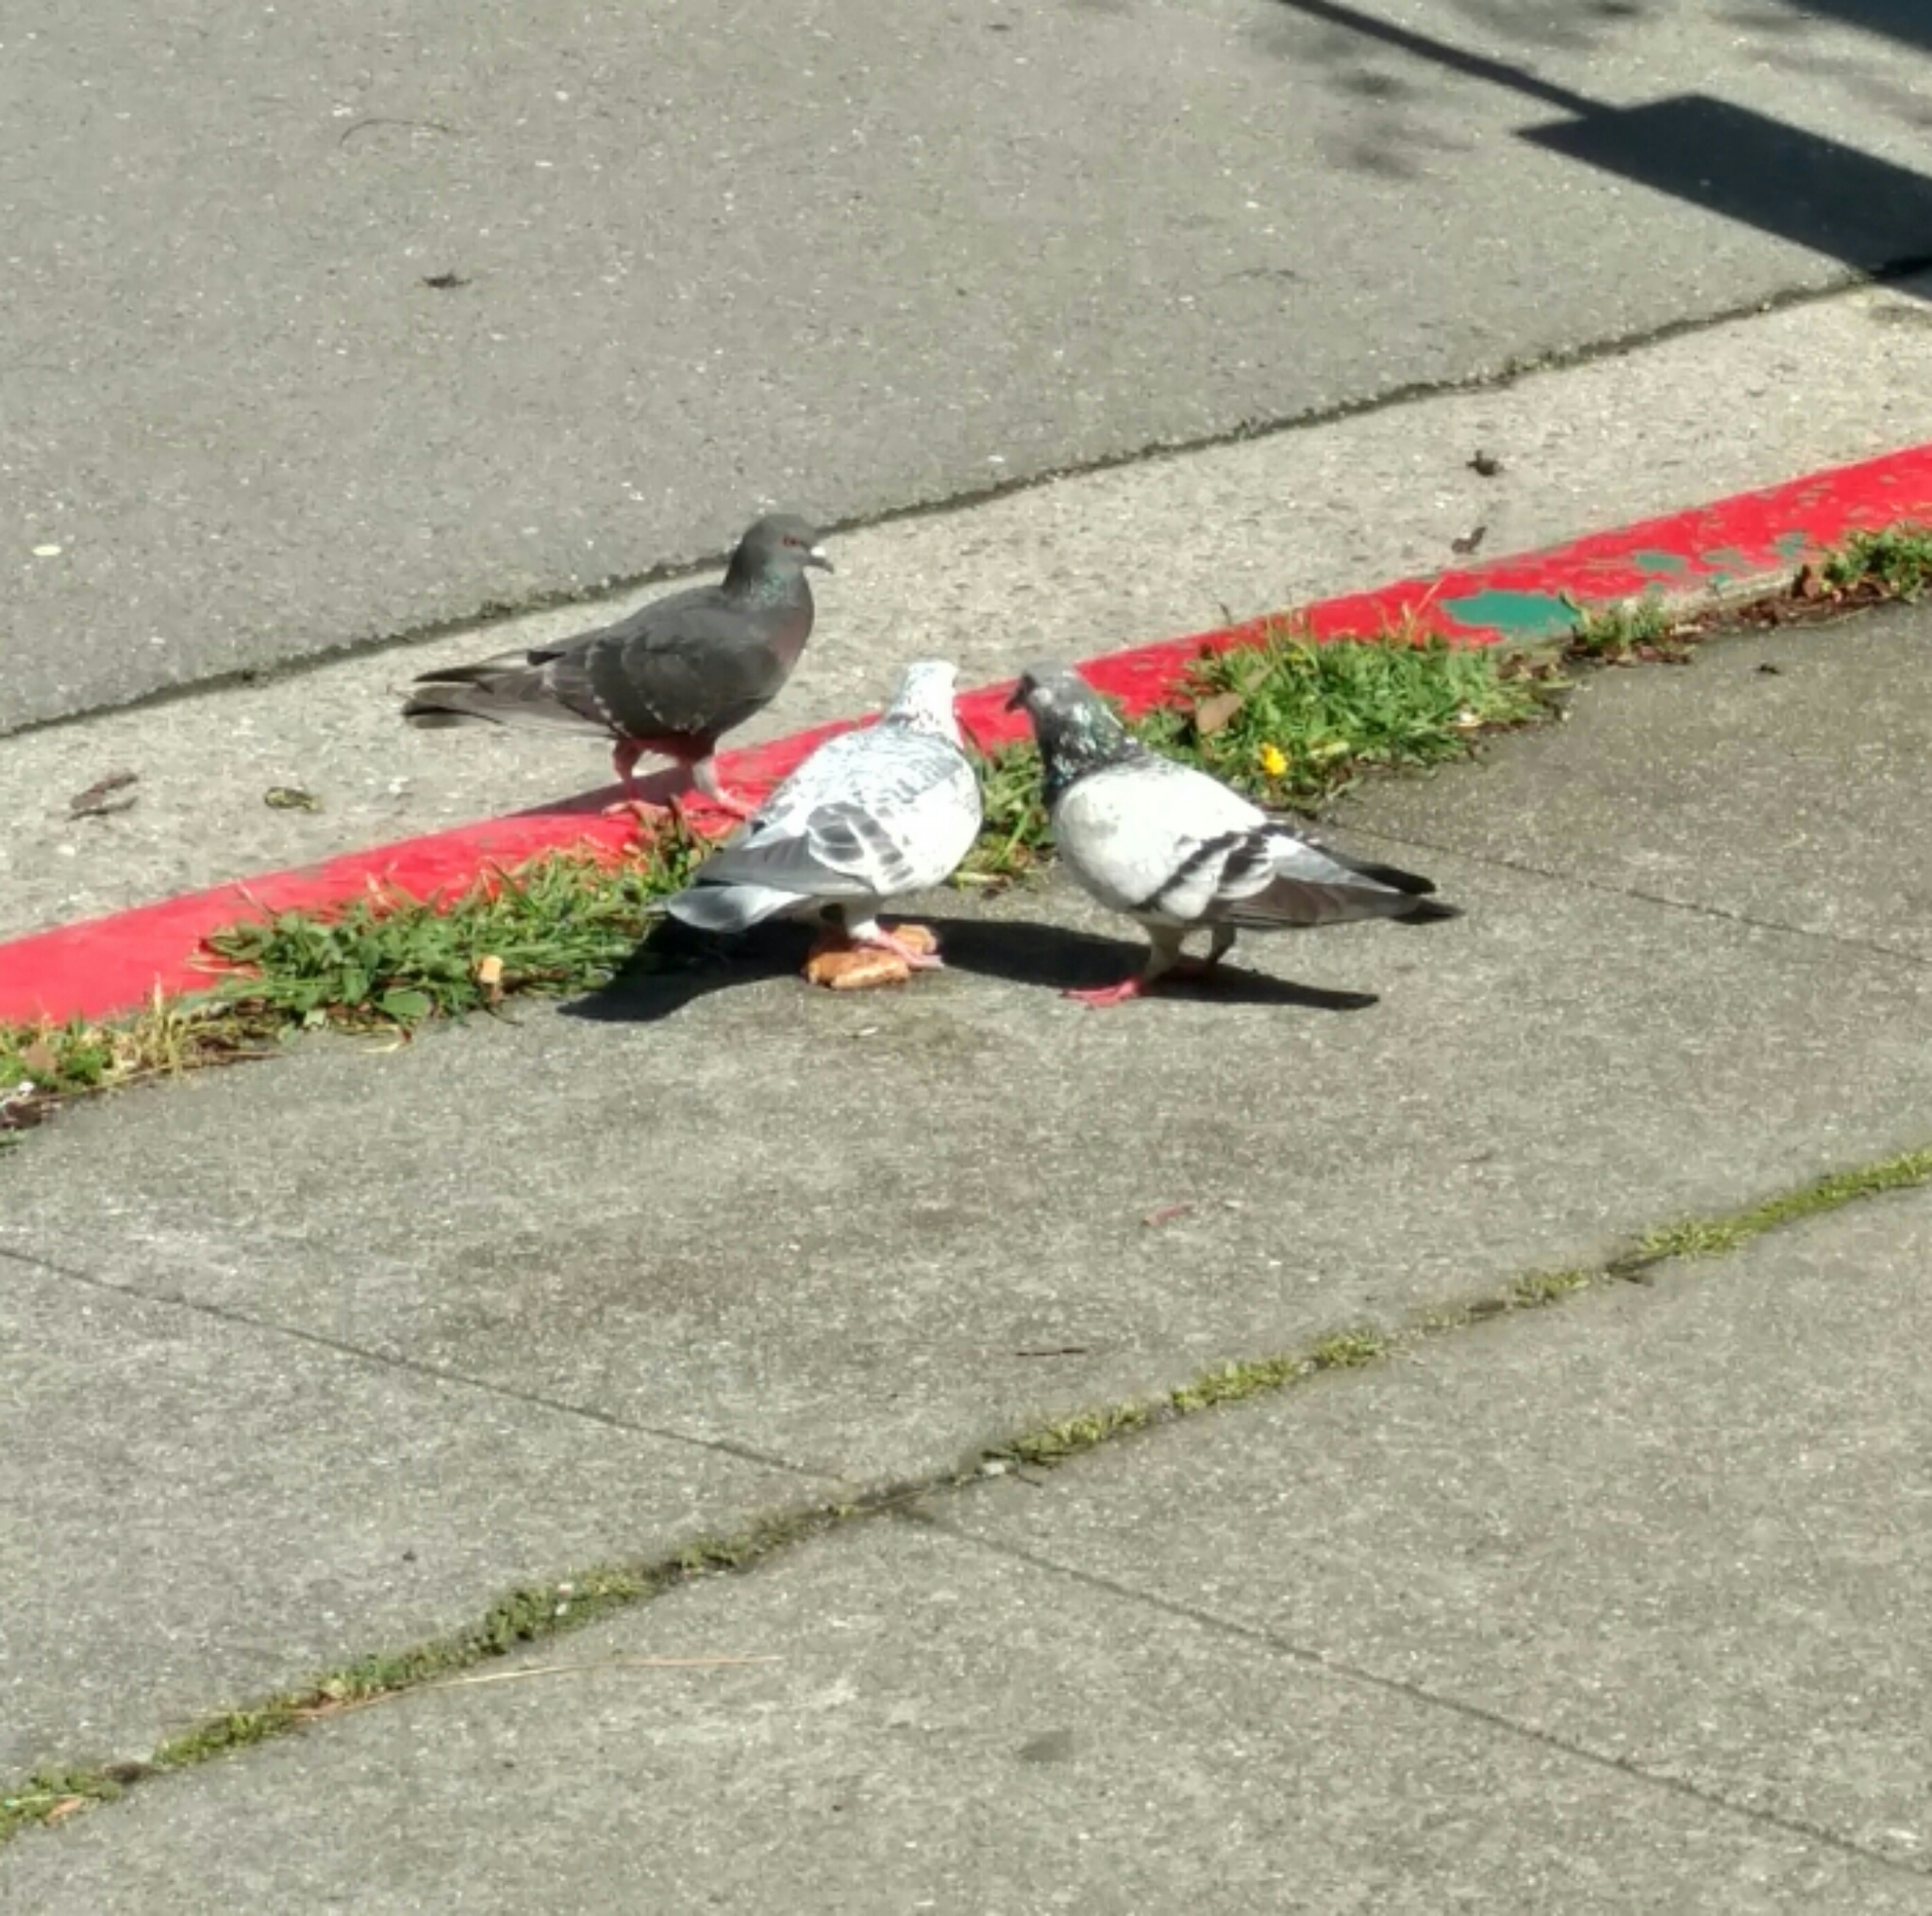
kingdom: Animalia
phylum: Chordata
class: Aves
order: Columbiformes
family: Columbidae
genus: Columba
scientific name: Columba livia
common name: Rock pigeon
